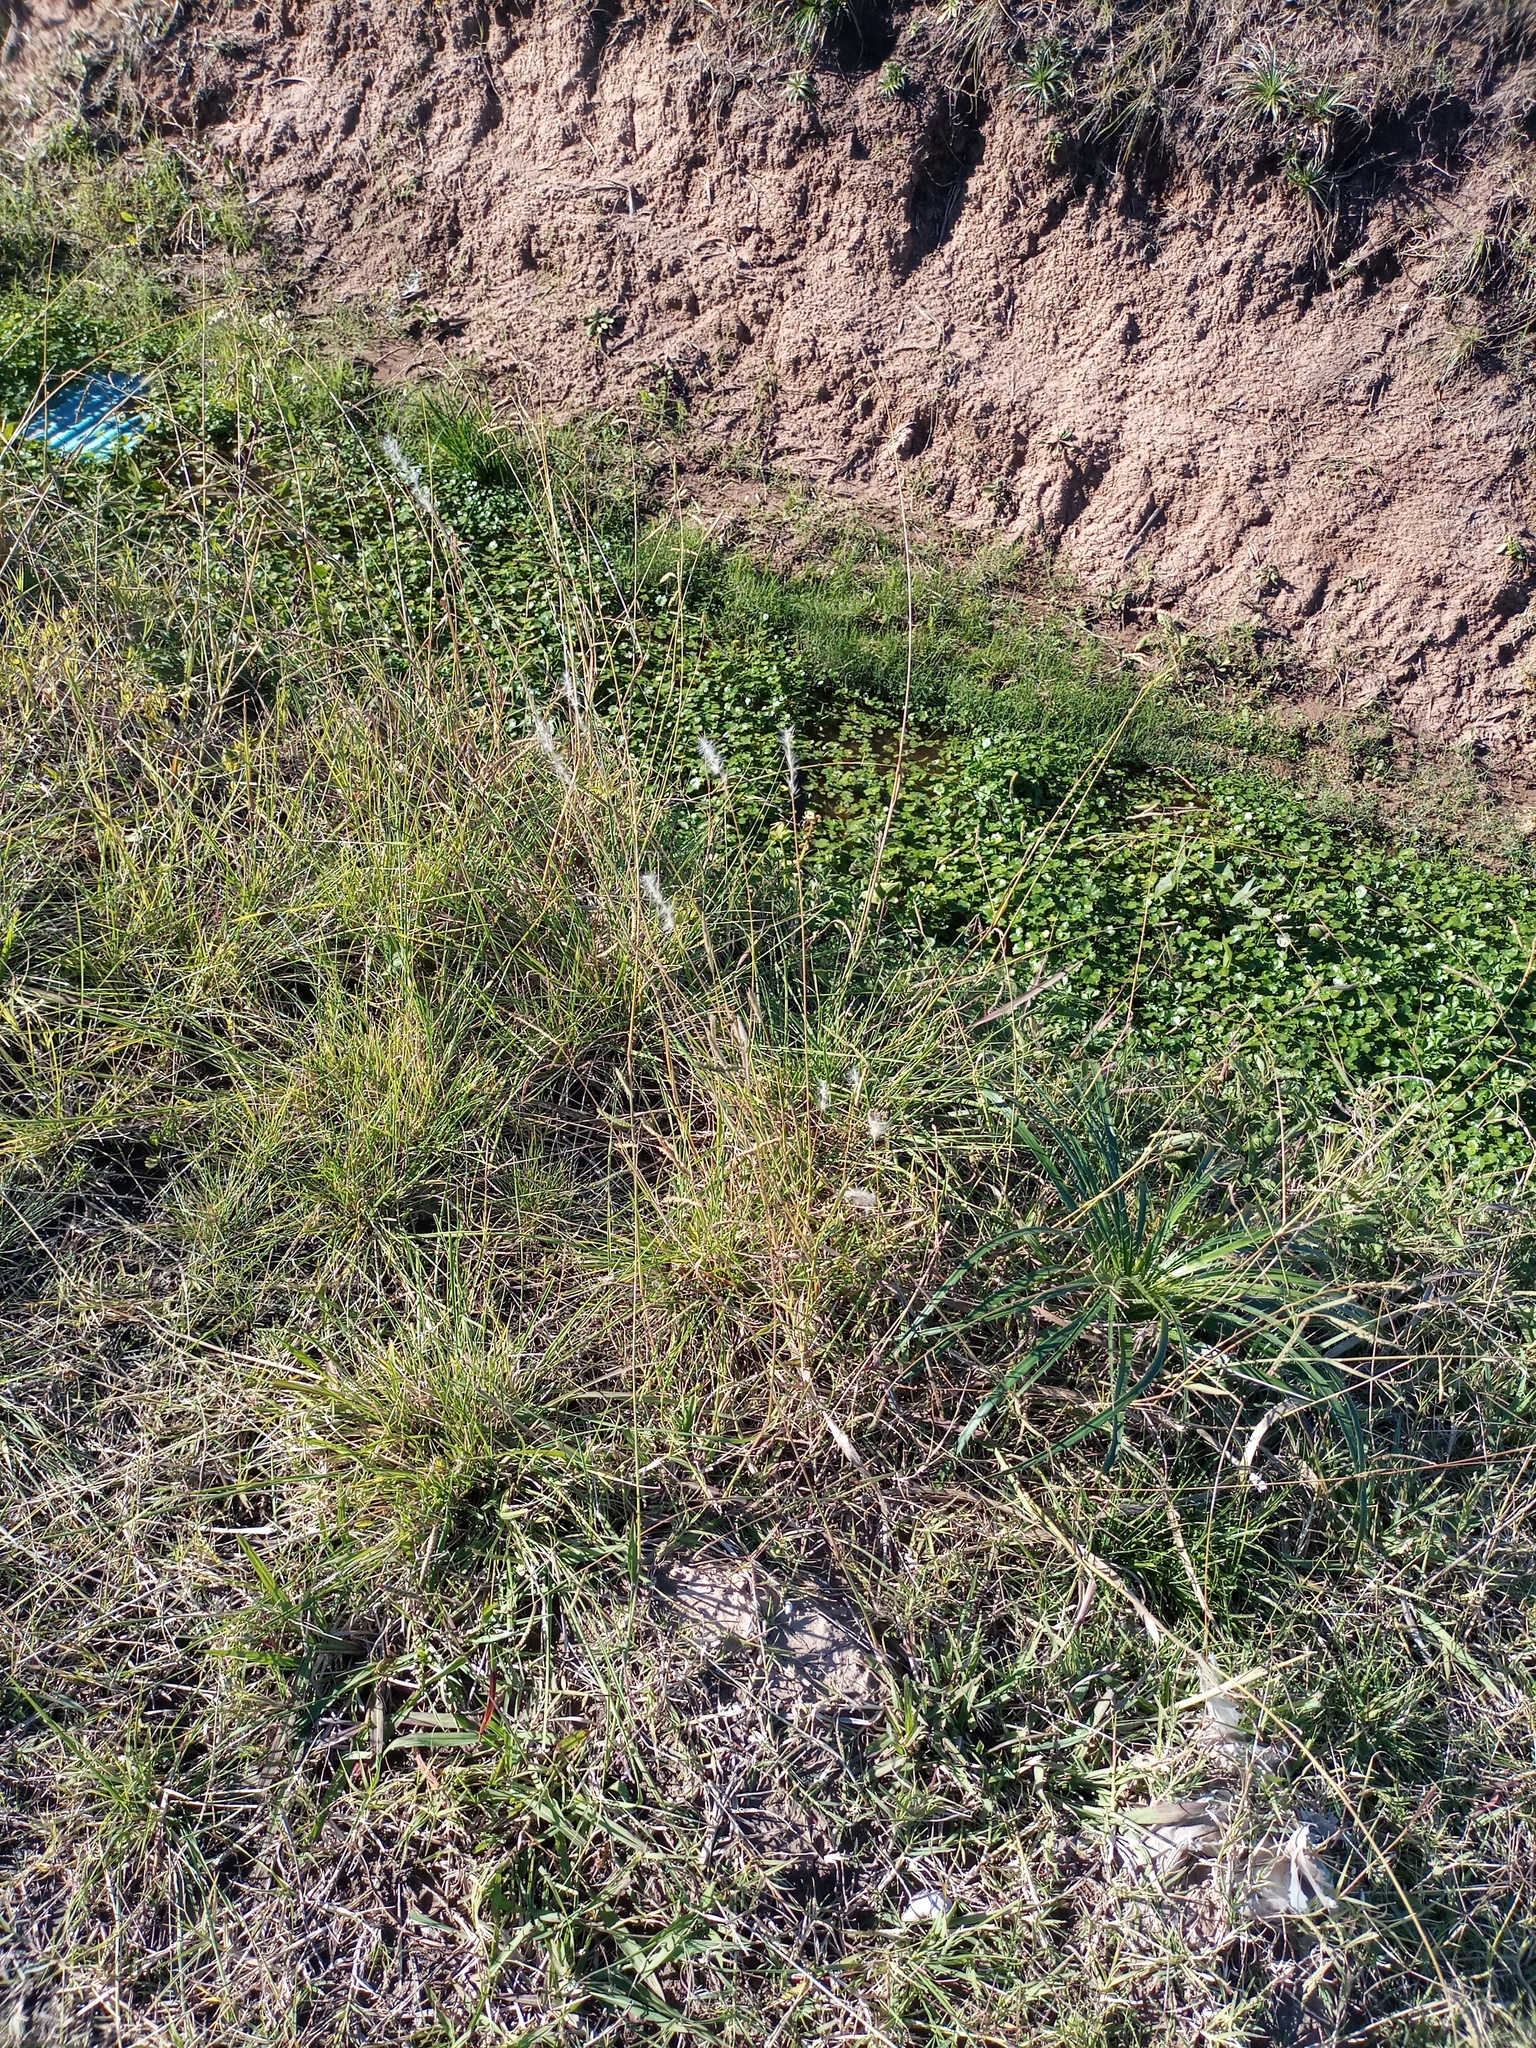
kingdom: Plantae
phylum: Tracheophyta
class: Liliopsida
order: Poales
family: Poaceae
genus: Bothriochloa
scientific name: Bothriochloa laguroides
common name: Silver bluestem
